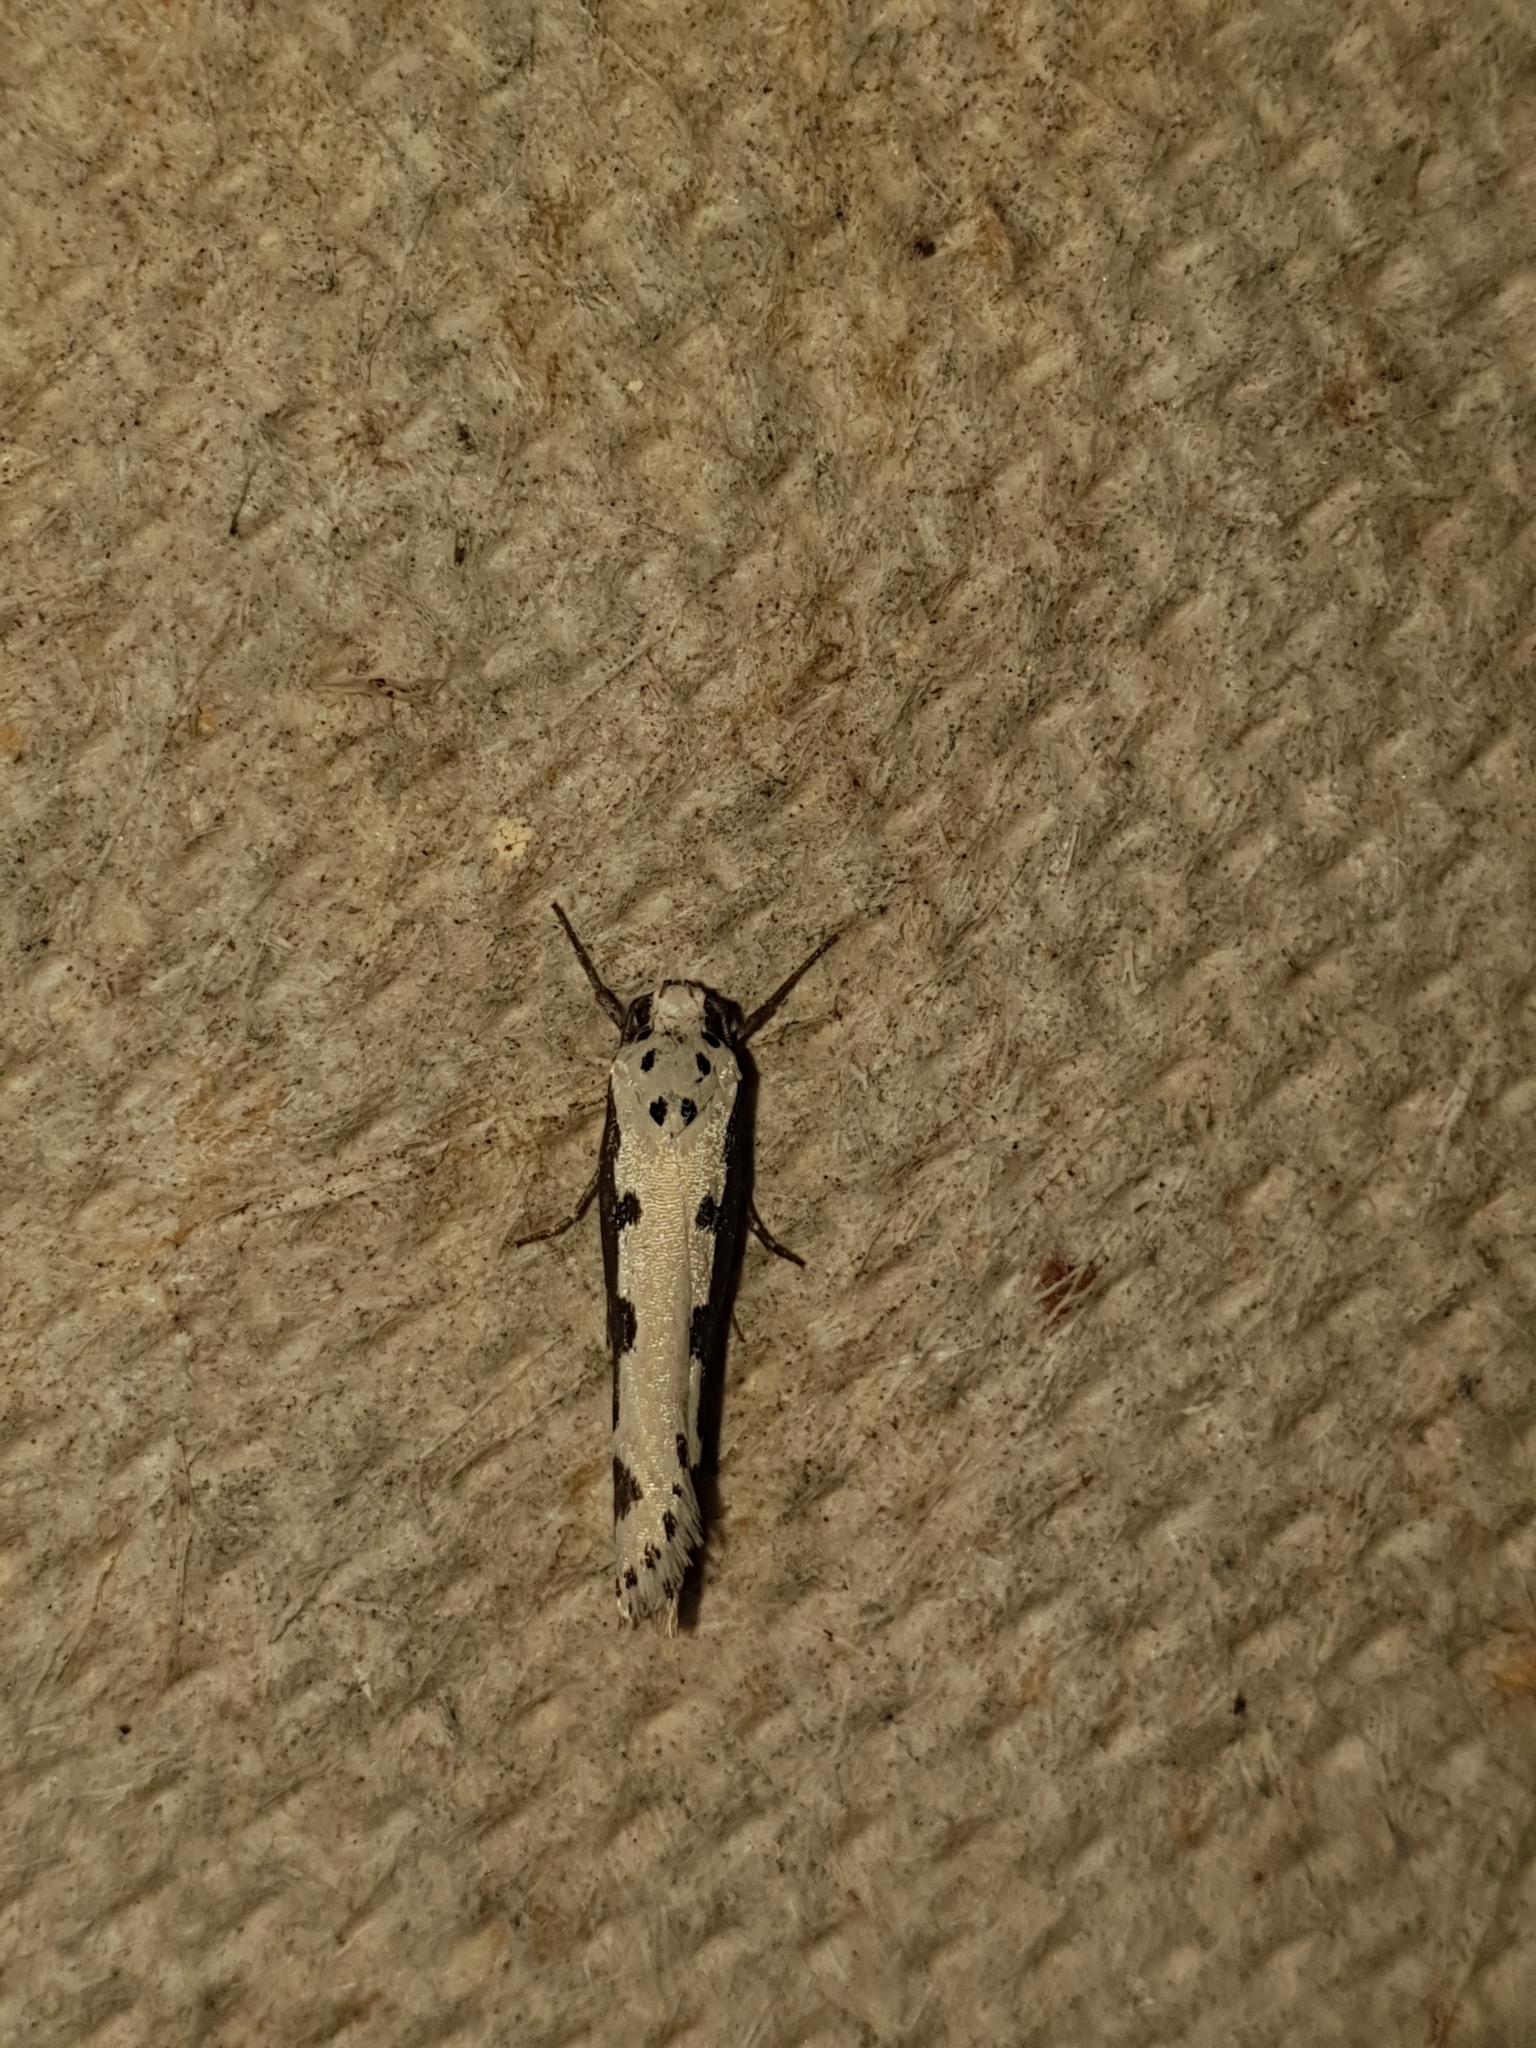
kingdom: Animalia
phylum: Arthropoda
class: Insecta
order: Lepidoptera
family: Ethmiidae
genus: Ethmia
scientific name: Ethmia bipunctella
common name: Bordered ermel
